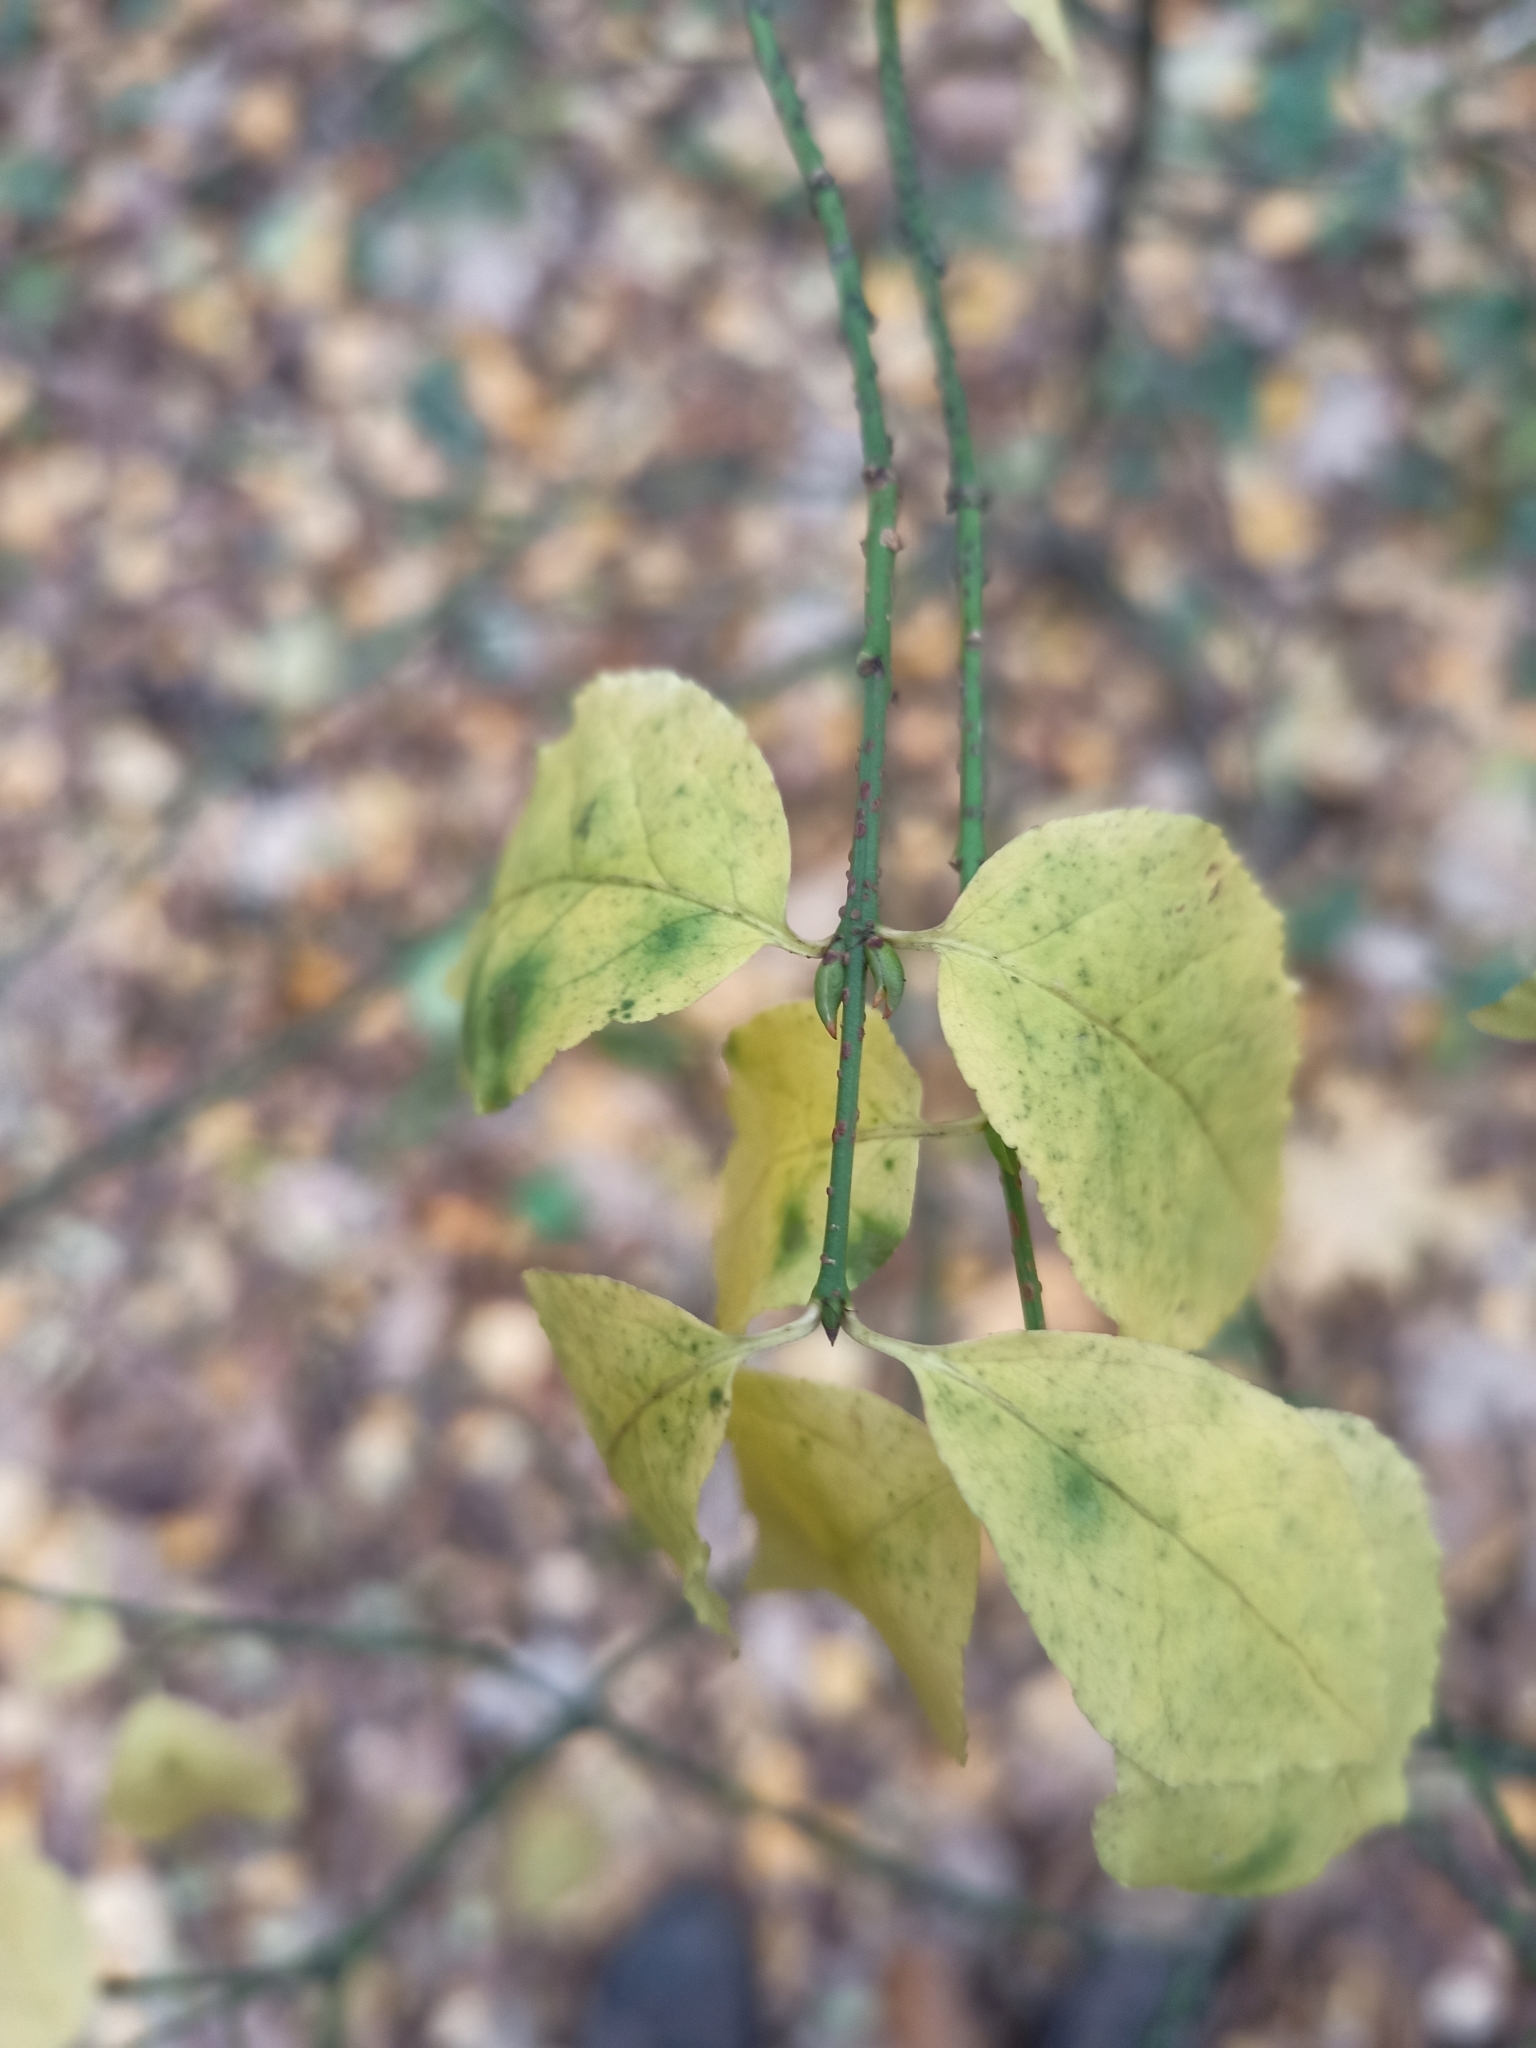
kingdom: Plantae
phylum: Tracheophyta
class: Magnoliopsida
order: Celastrales
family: Celastraceae
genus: Euonymus
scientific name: Euonymus verrucosus
